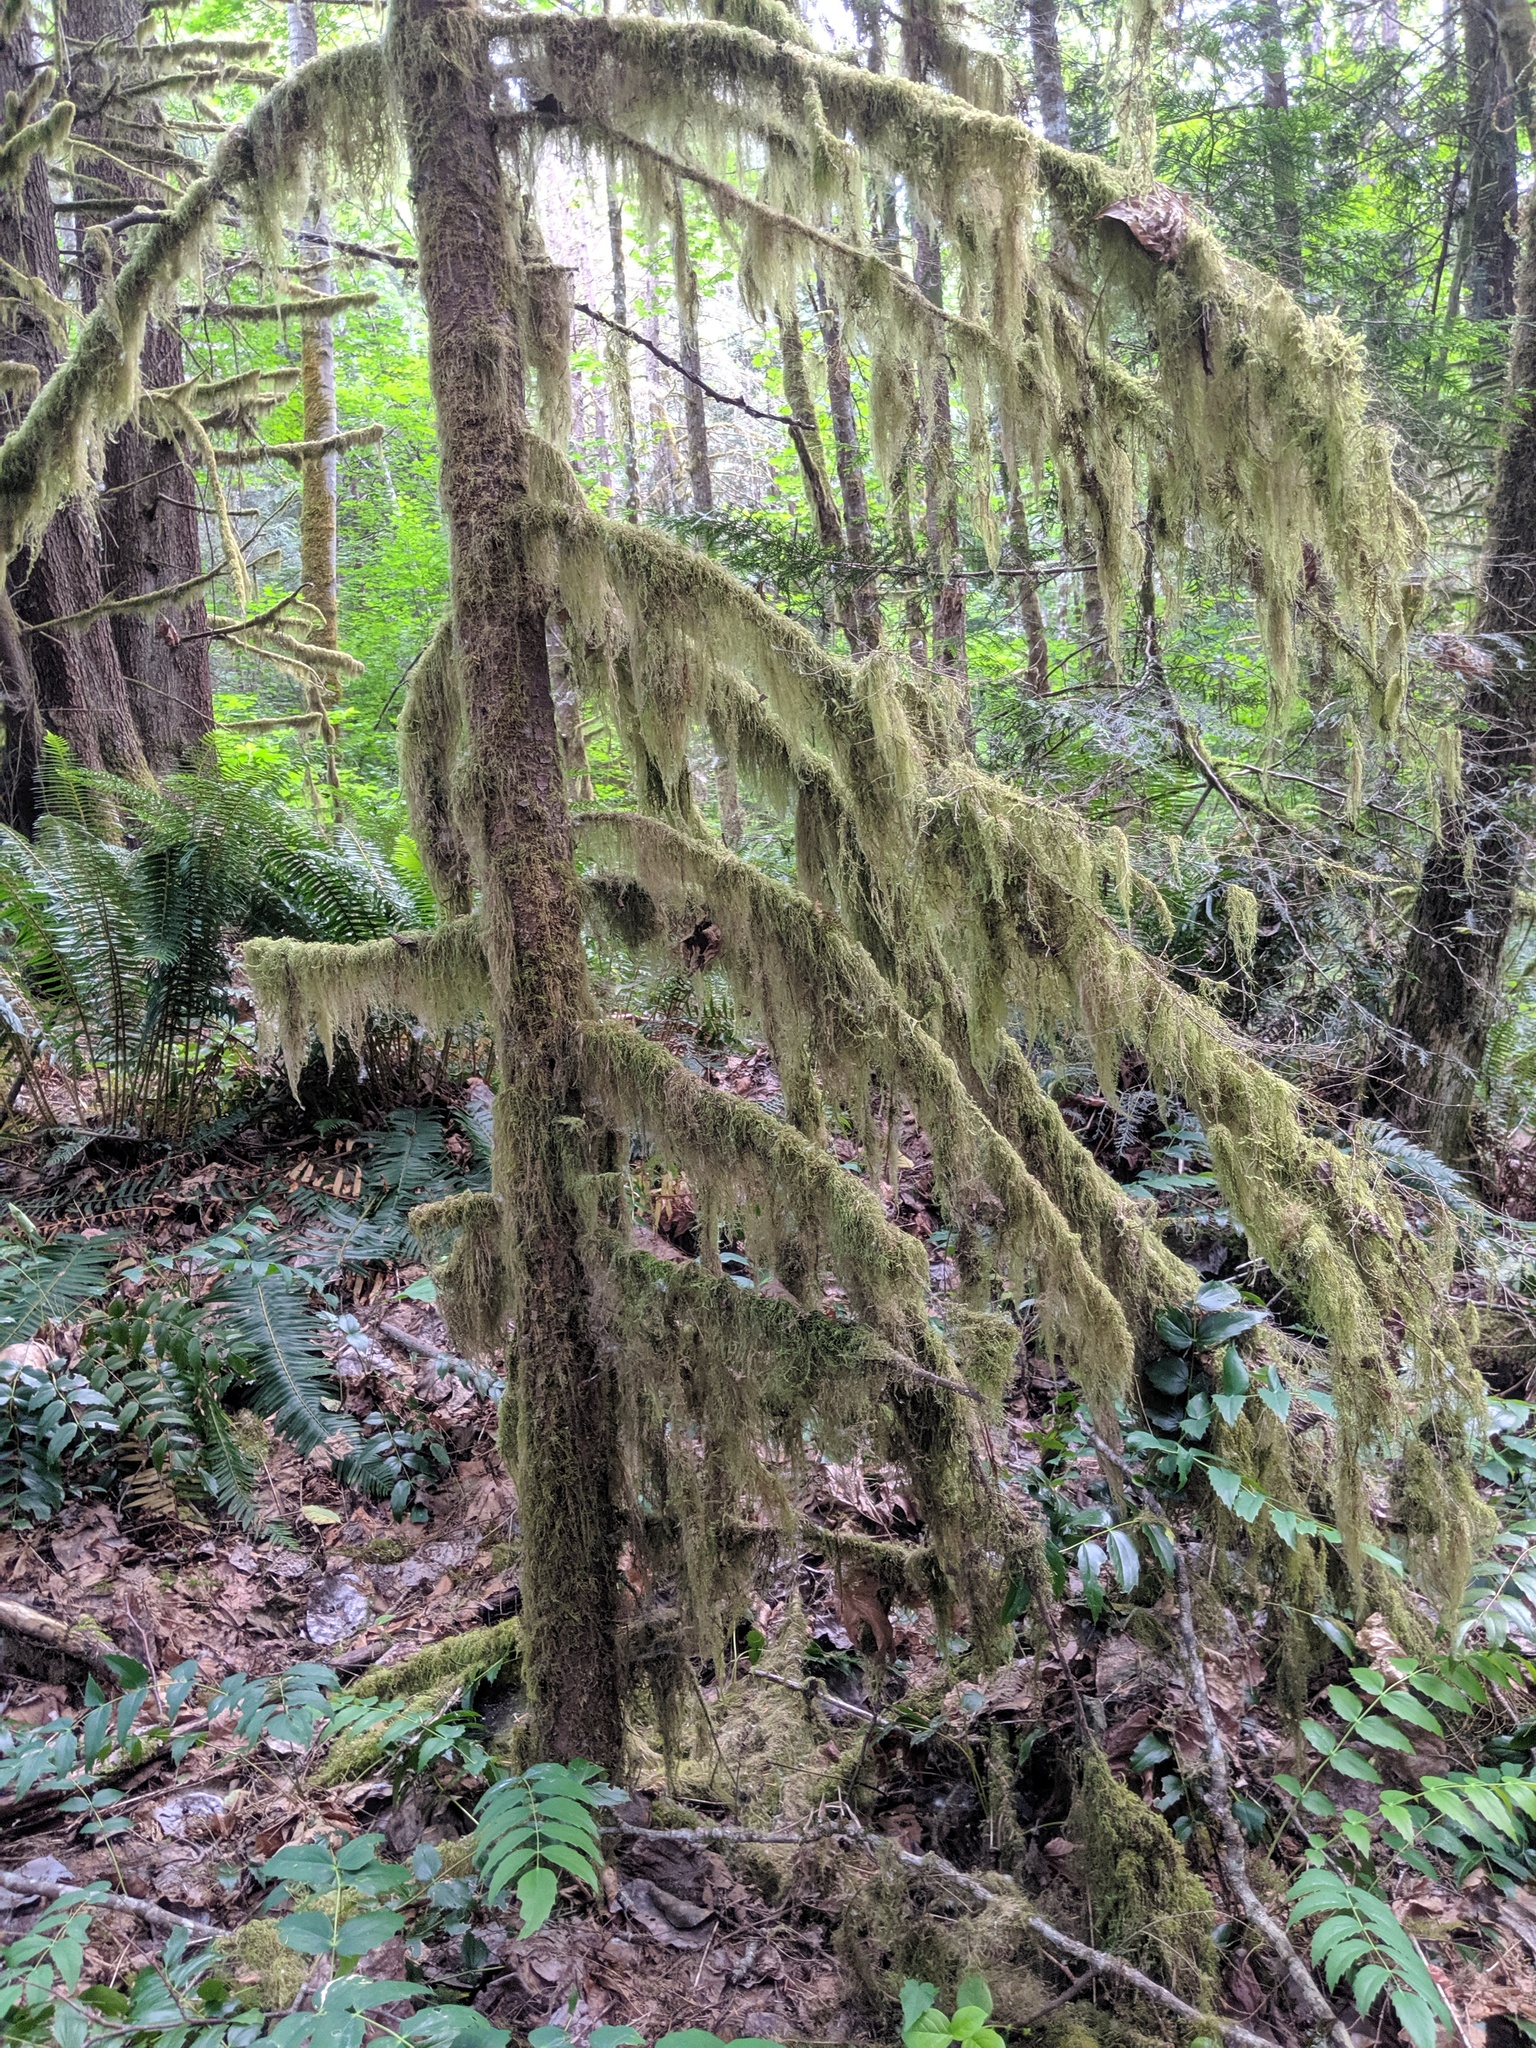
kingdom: Plantae
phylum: Bryophyta
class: Bryopsida
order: Hypnales
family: Lembophyllaceae
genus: Pseudisothecium
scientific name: Pseudisothecium stoloniferum
